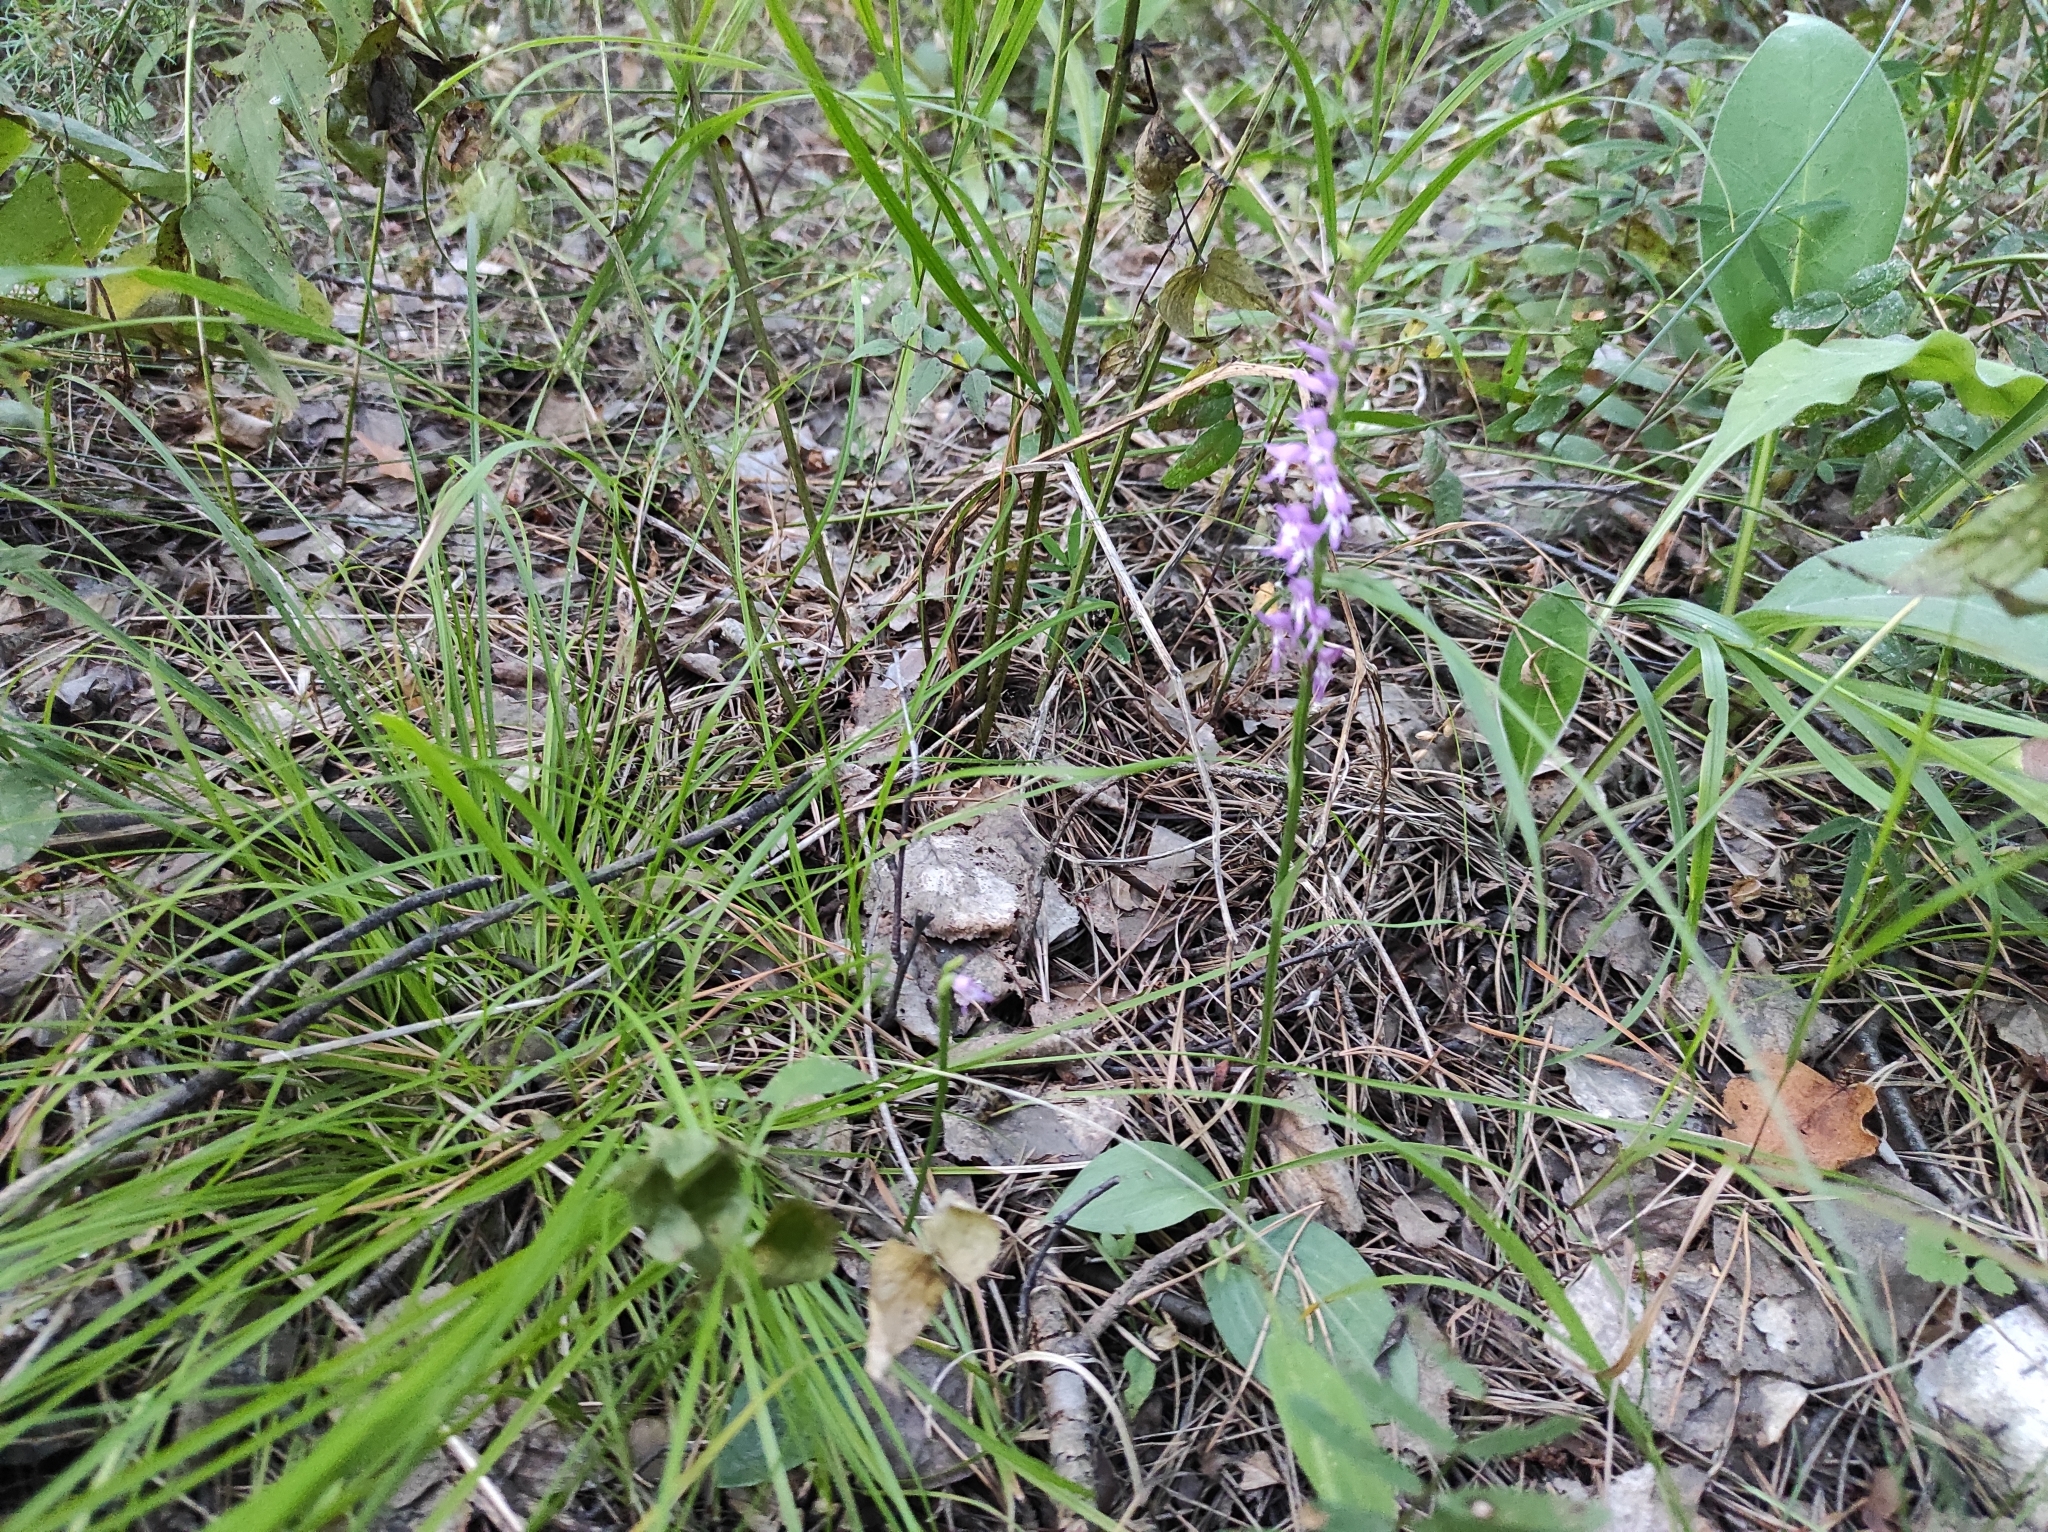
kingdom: Plantae
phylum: Tracheophyta
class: Liliopsida
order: Asparagales
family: Orchidaceae
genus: Hemipilia
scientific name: Hemipilia cucullata
